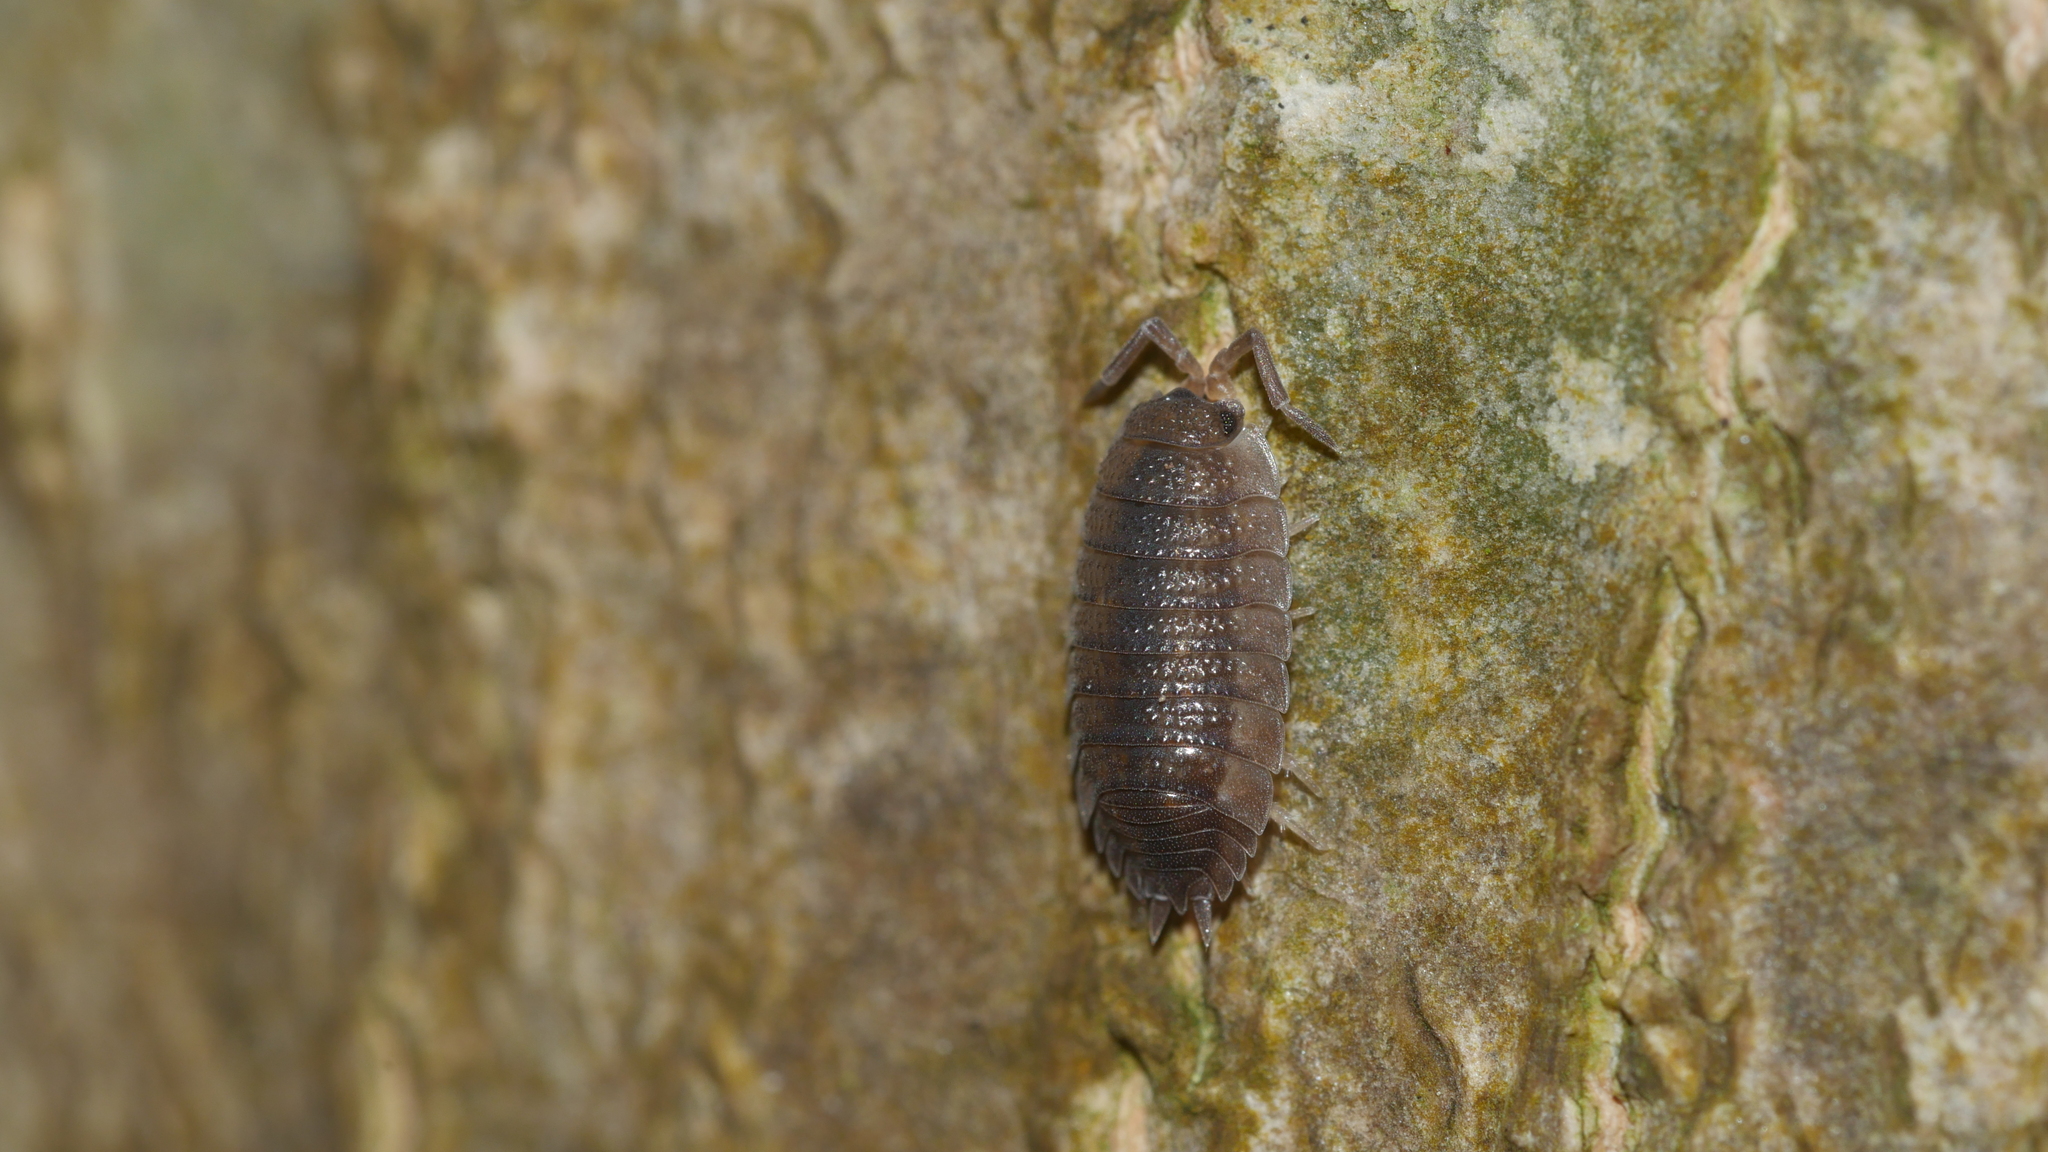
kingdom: Animalia
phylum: Arthropoda
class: Malacostraca
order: Isopoda
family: Porcellionidae
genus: Porcellio
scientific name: Porcellio scaber
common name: Common rough woodlouse
